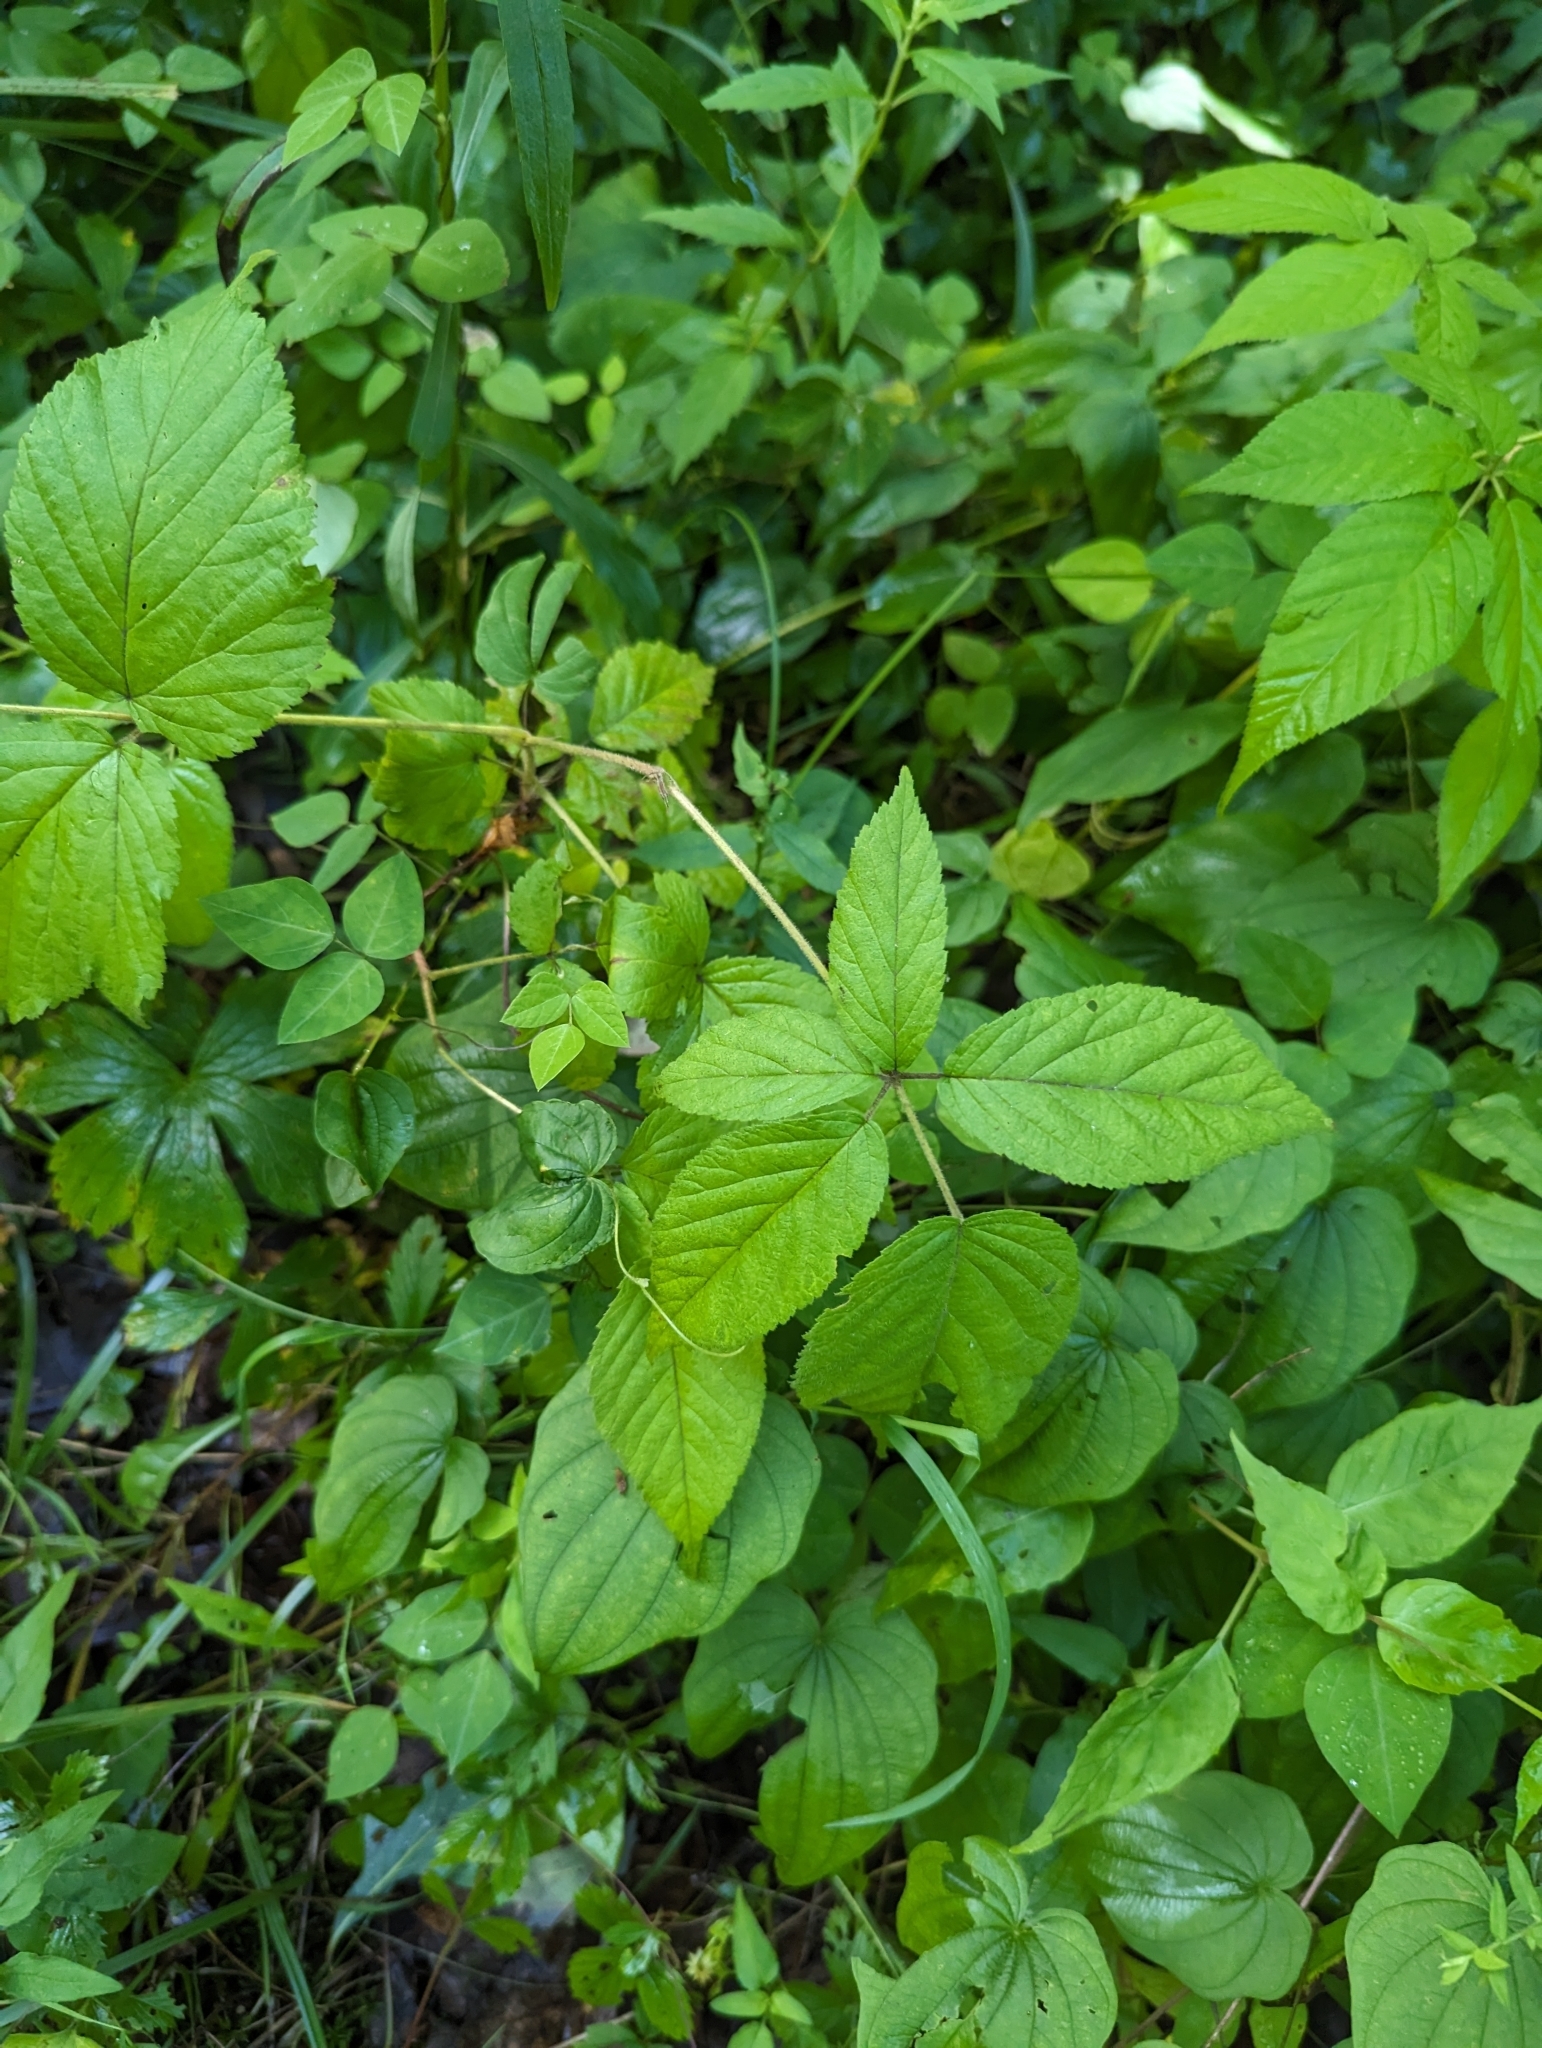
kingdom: Plantae
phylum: Tracheophyta
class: Magnoliopsida
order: Rosales
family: Rosaceae
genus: Rubus
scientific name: Rubus allegheniensis
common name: Allegheny blackberry
